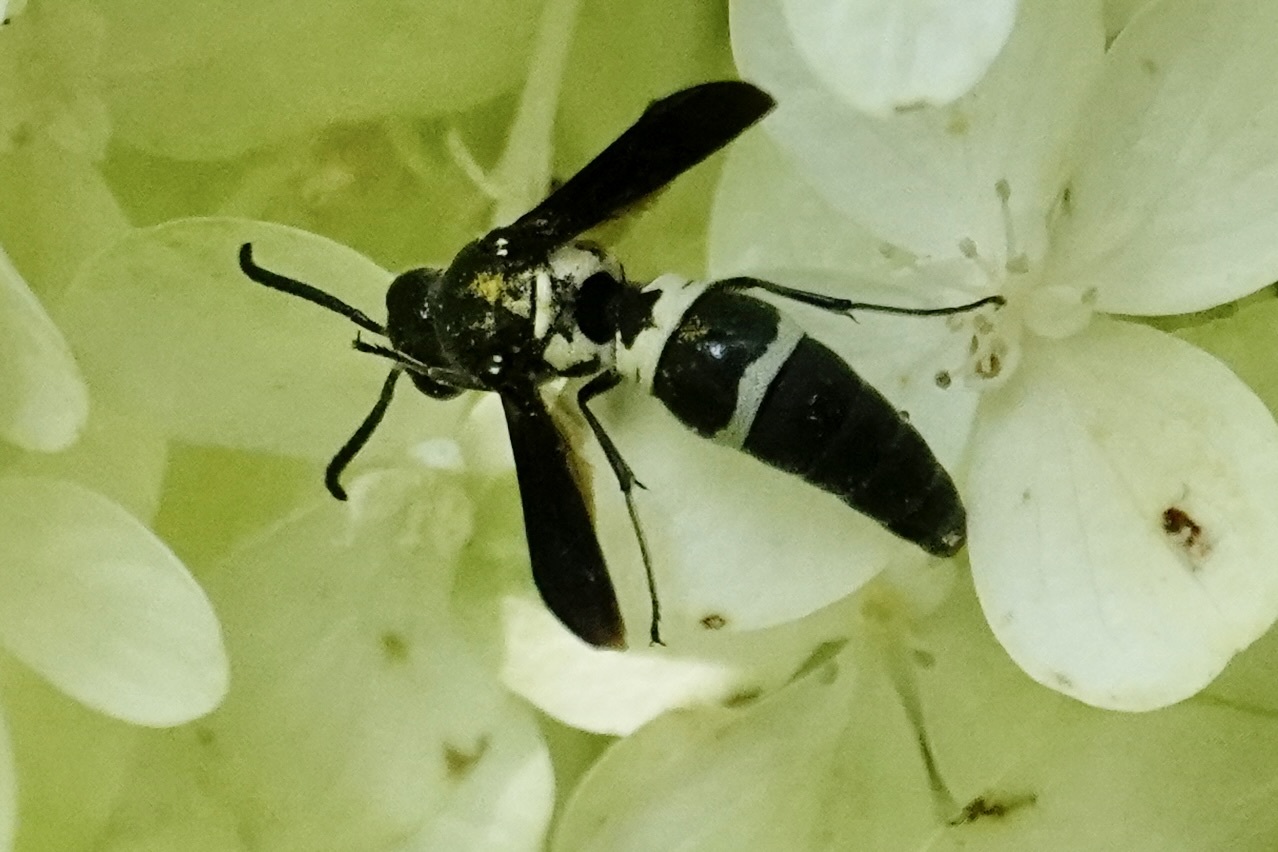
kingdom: Animalia
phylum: Arthropoda
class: Insecta
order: Hymenoptera
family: Eumenidae
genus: Pseudodynerus
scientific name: Pseudodynerus quadrisectus
